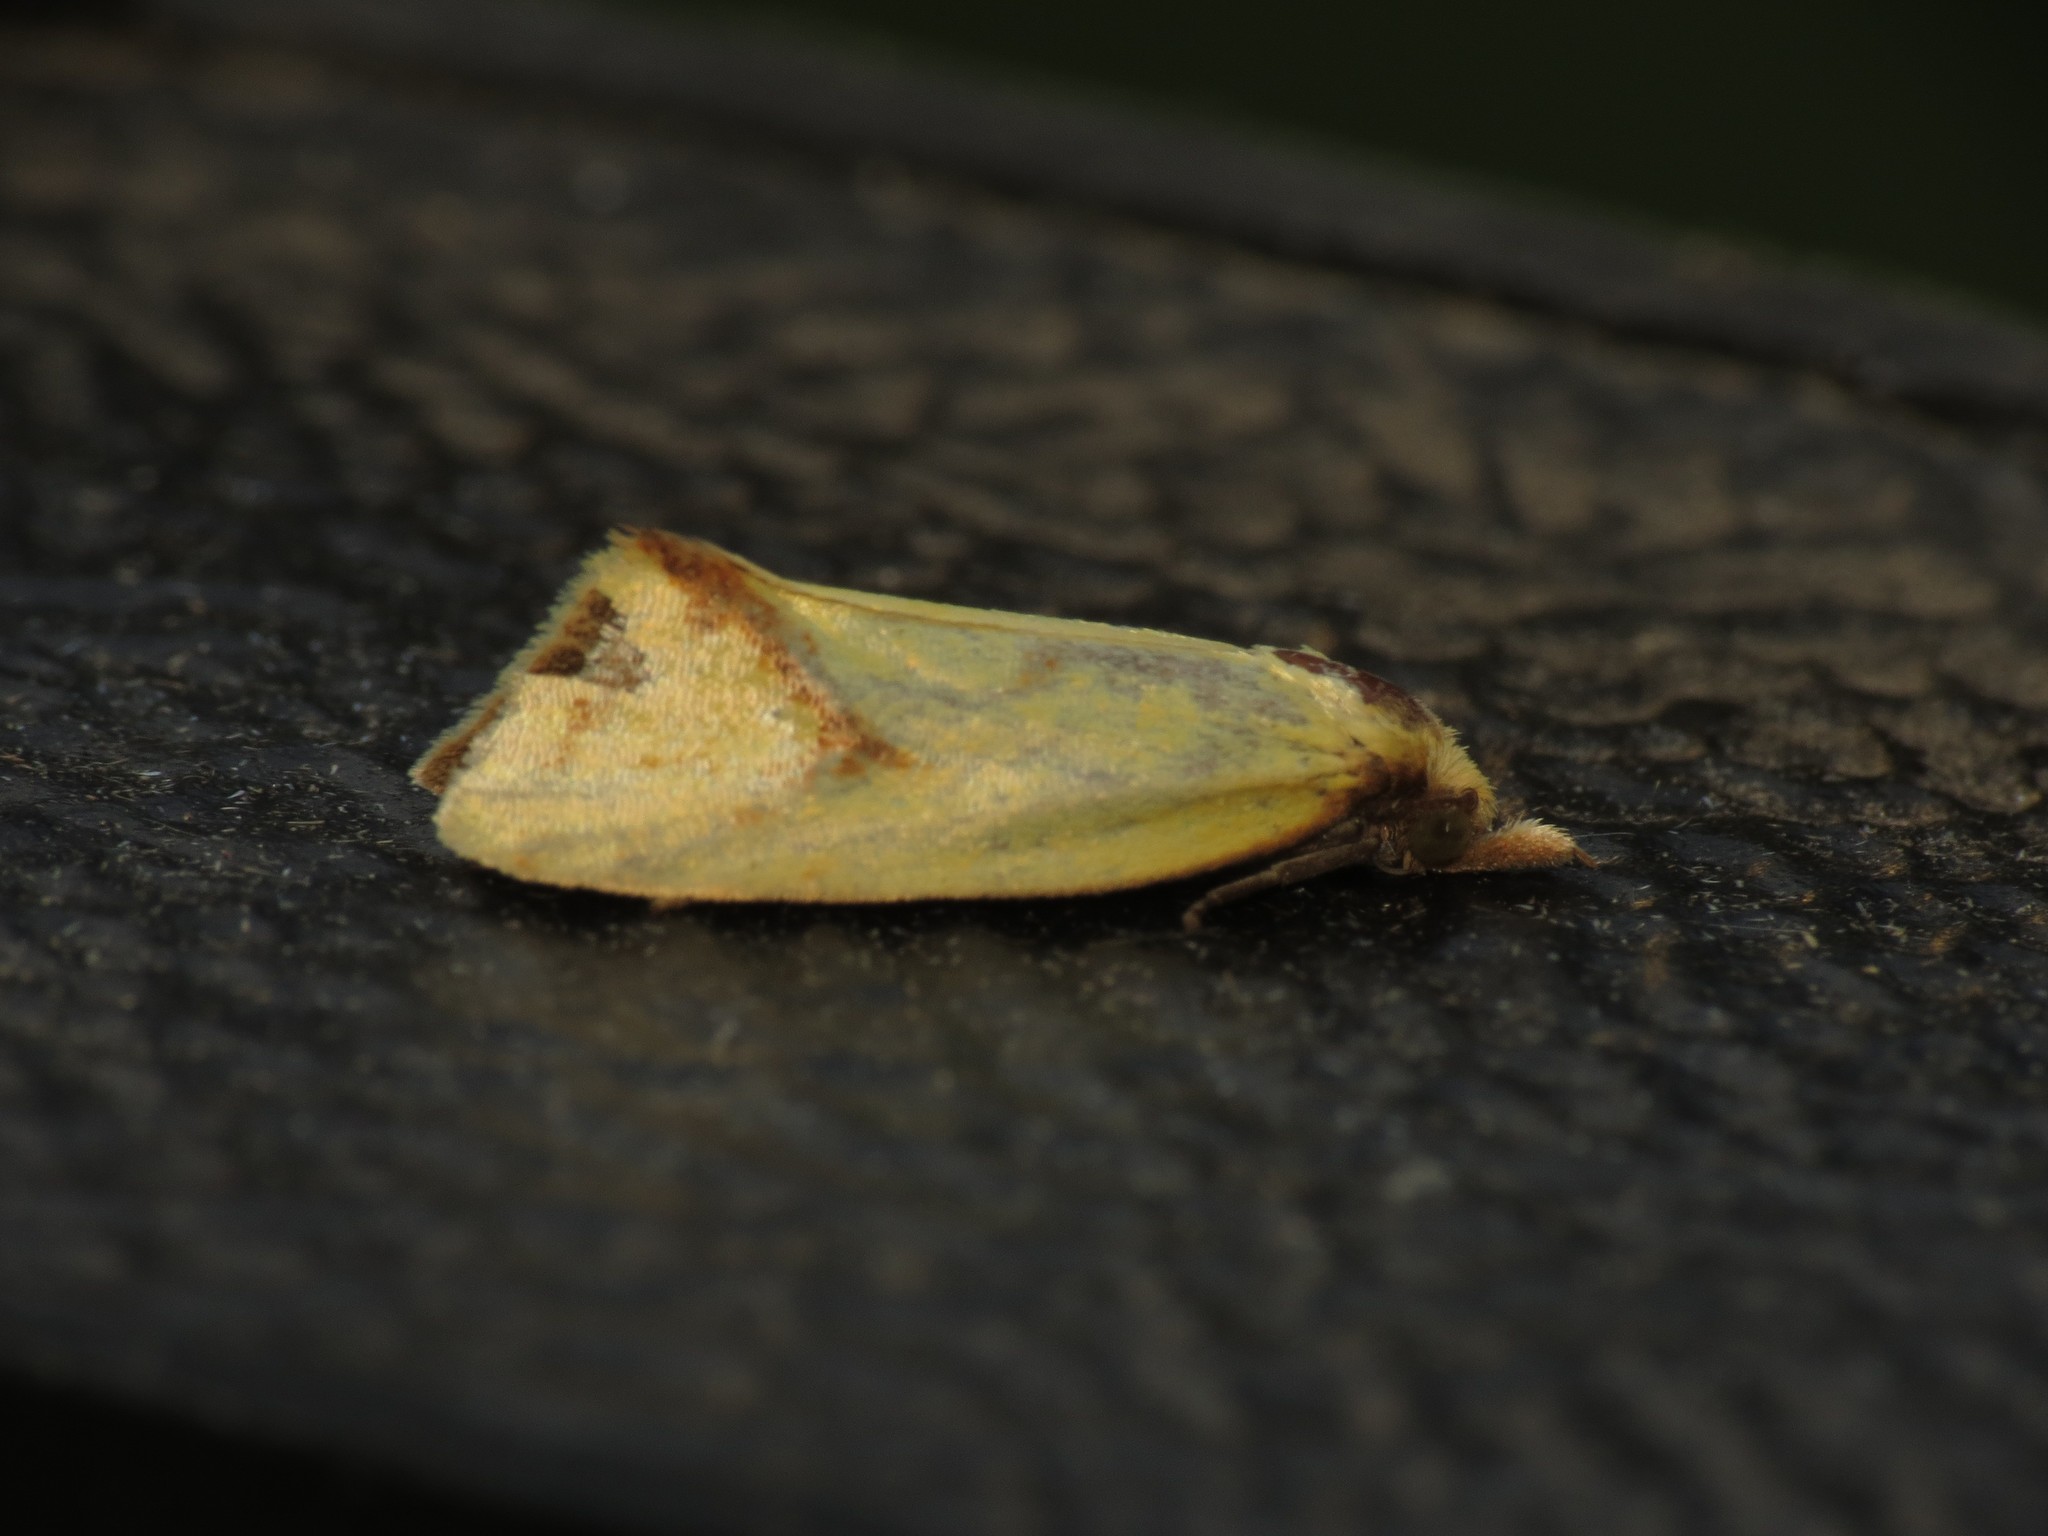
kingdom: Animalia
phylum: Arthropoda
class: Insecta
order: Lepidoptera
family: Tortricidae
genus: Agapeta
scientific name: Agapeta hamana
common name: Common yellow conch
